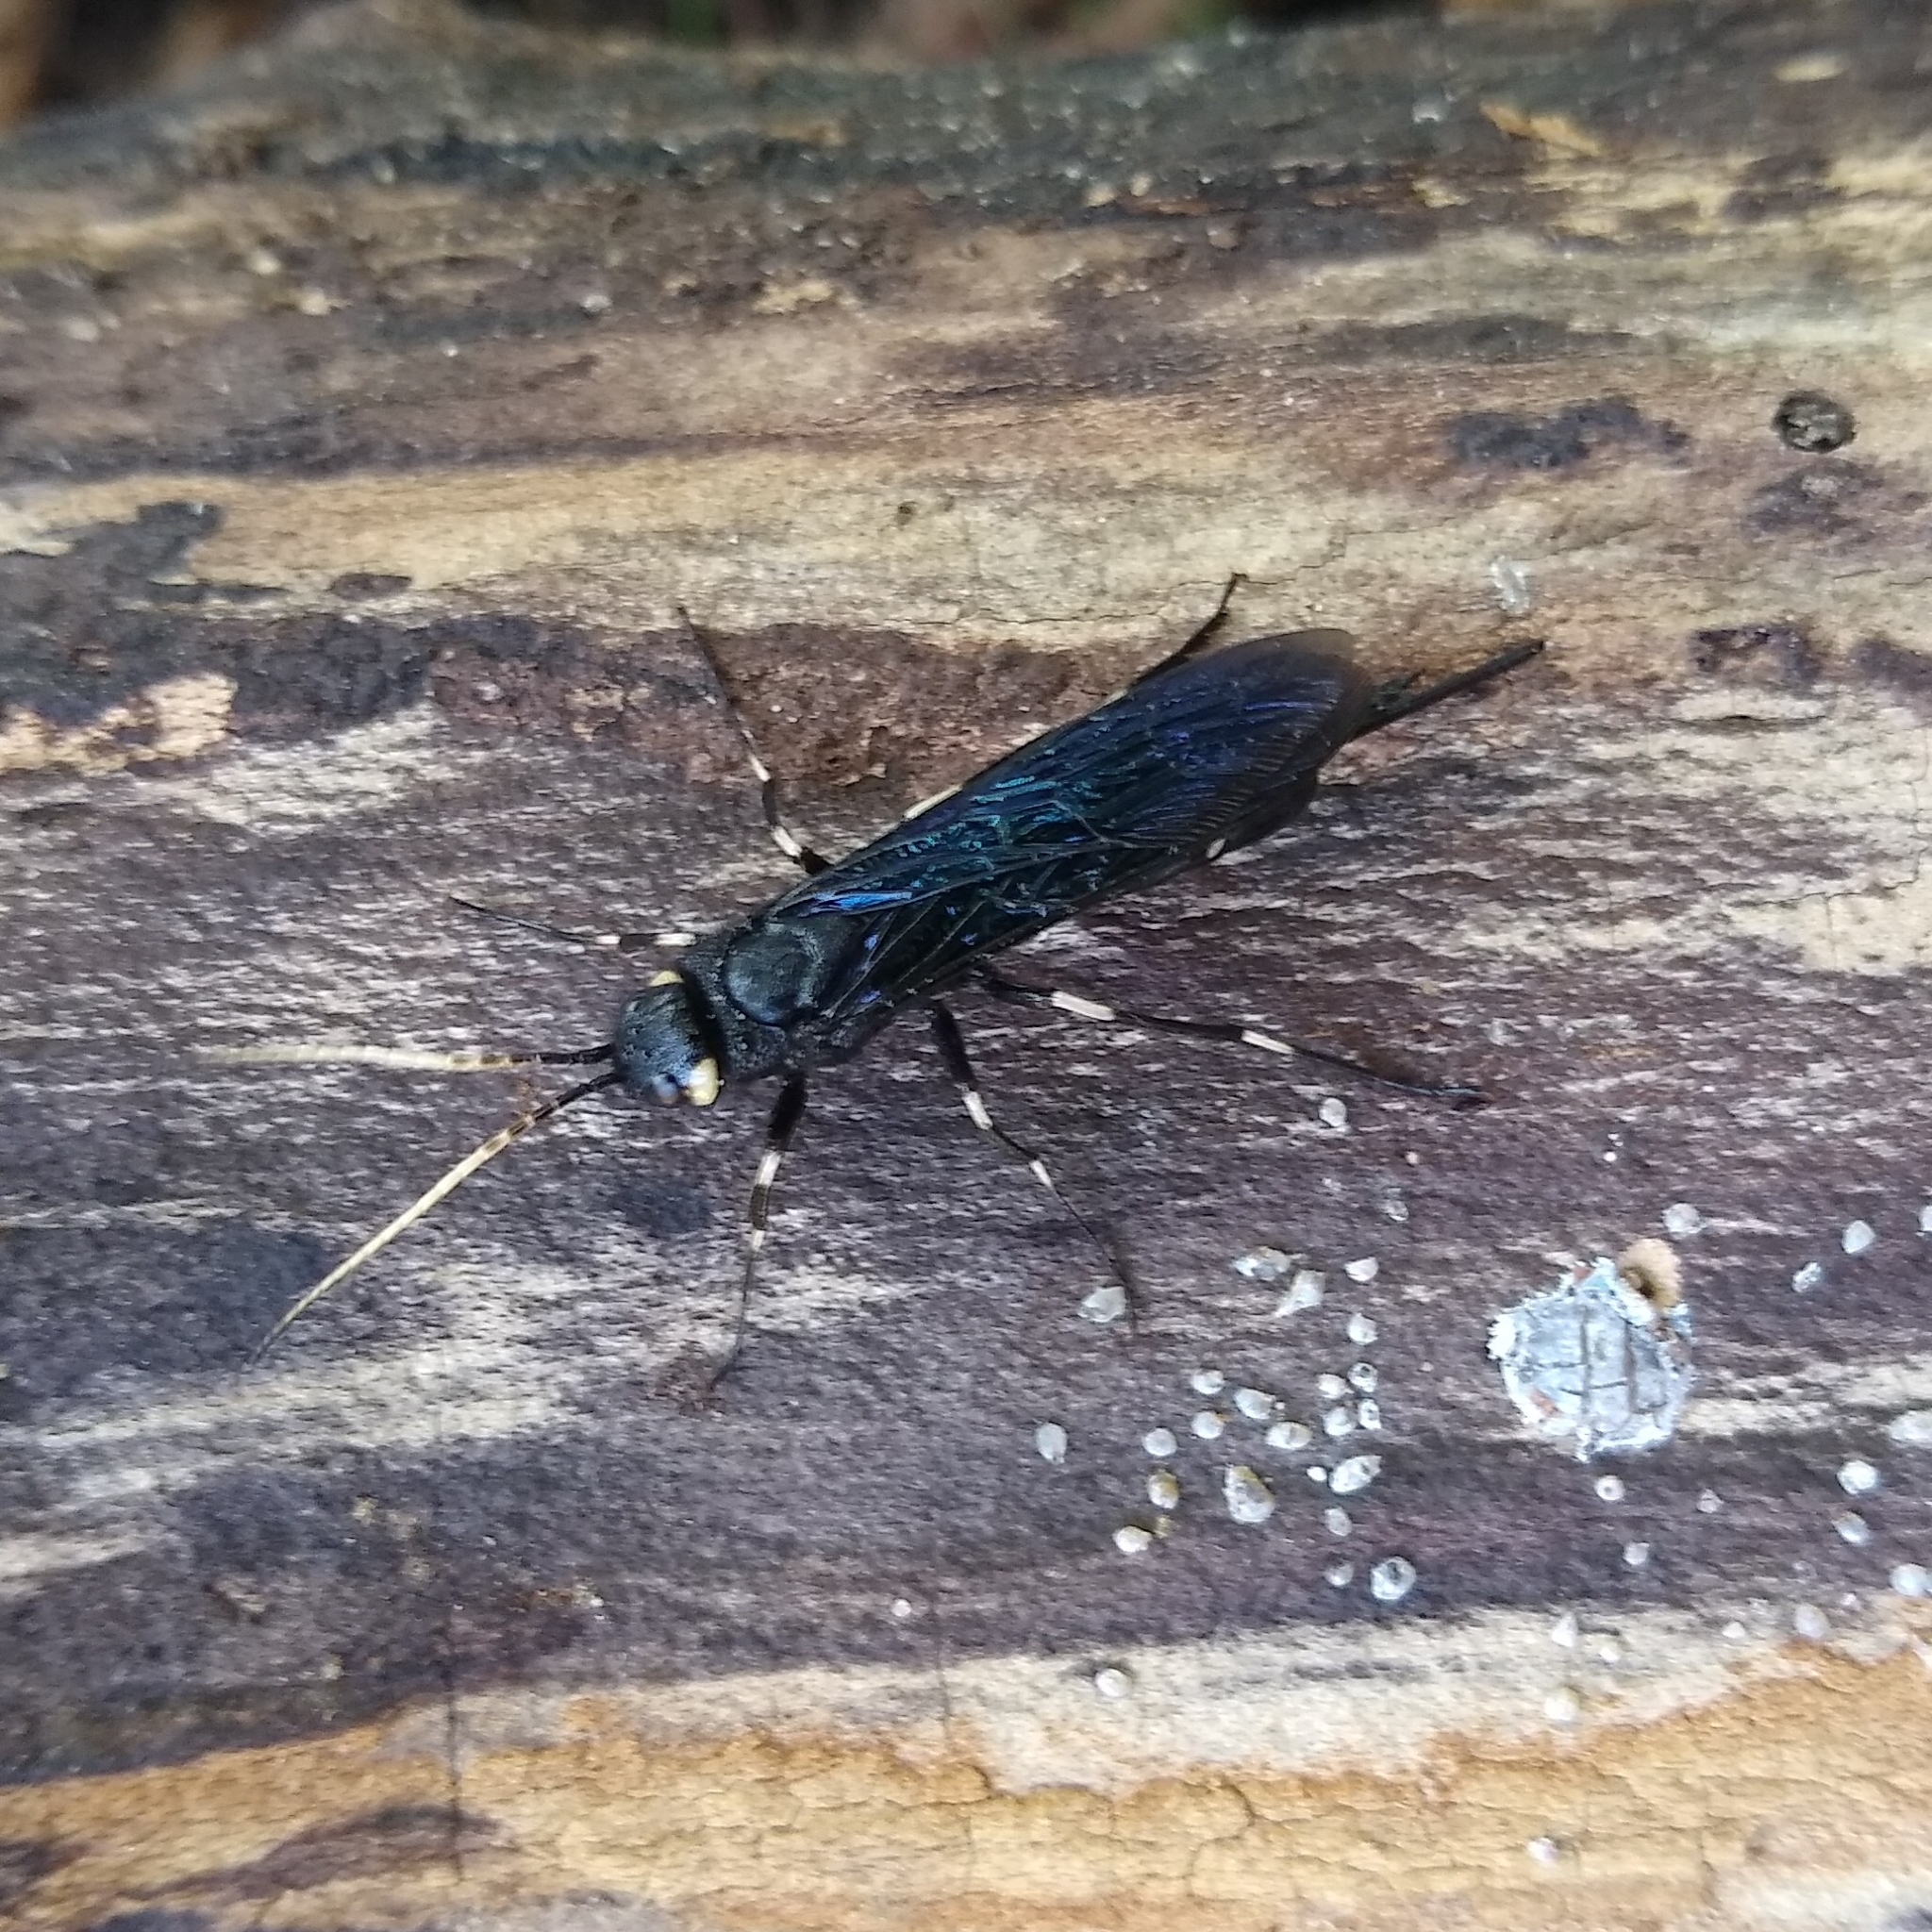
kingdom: Animalia
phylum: Arthropoda
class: Insecta
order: Hymenoptera
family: Siricidae
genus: Urocerus
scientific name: Urocerus albicornis
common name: White-horned horntail
